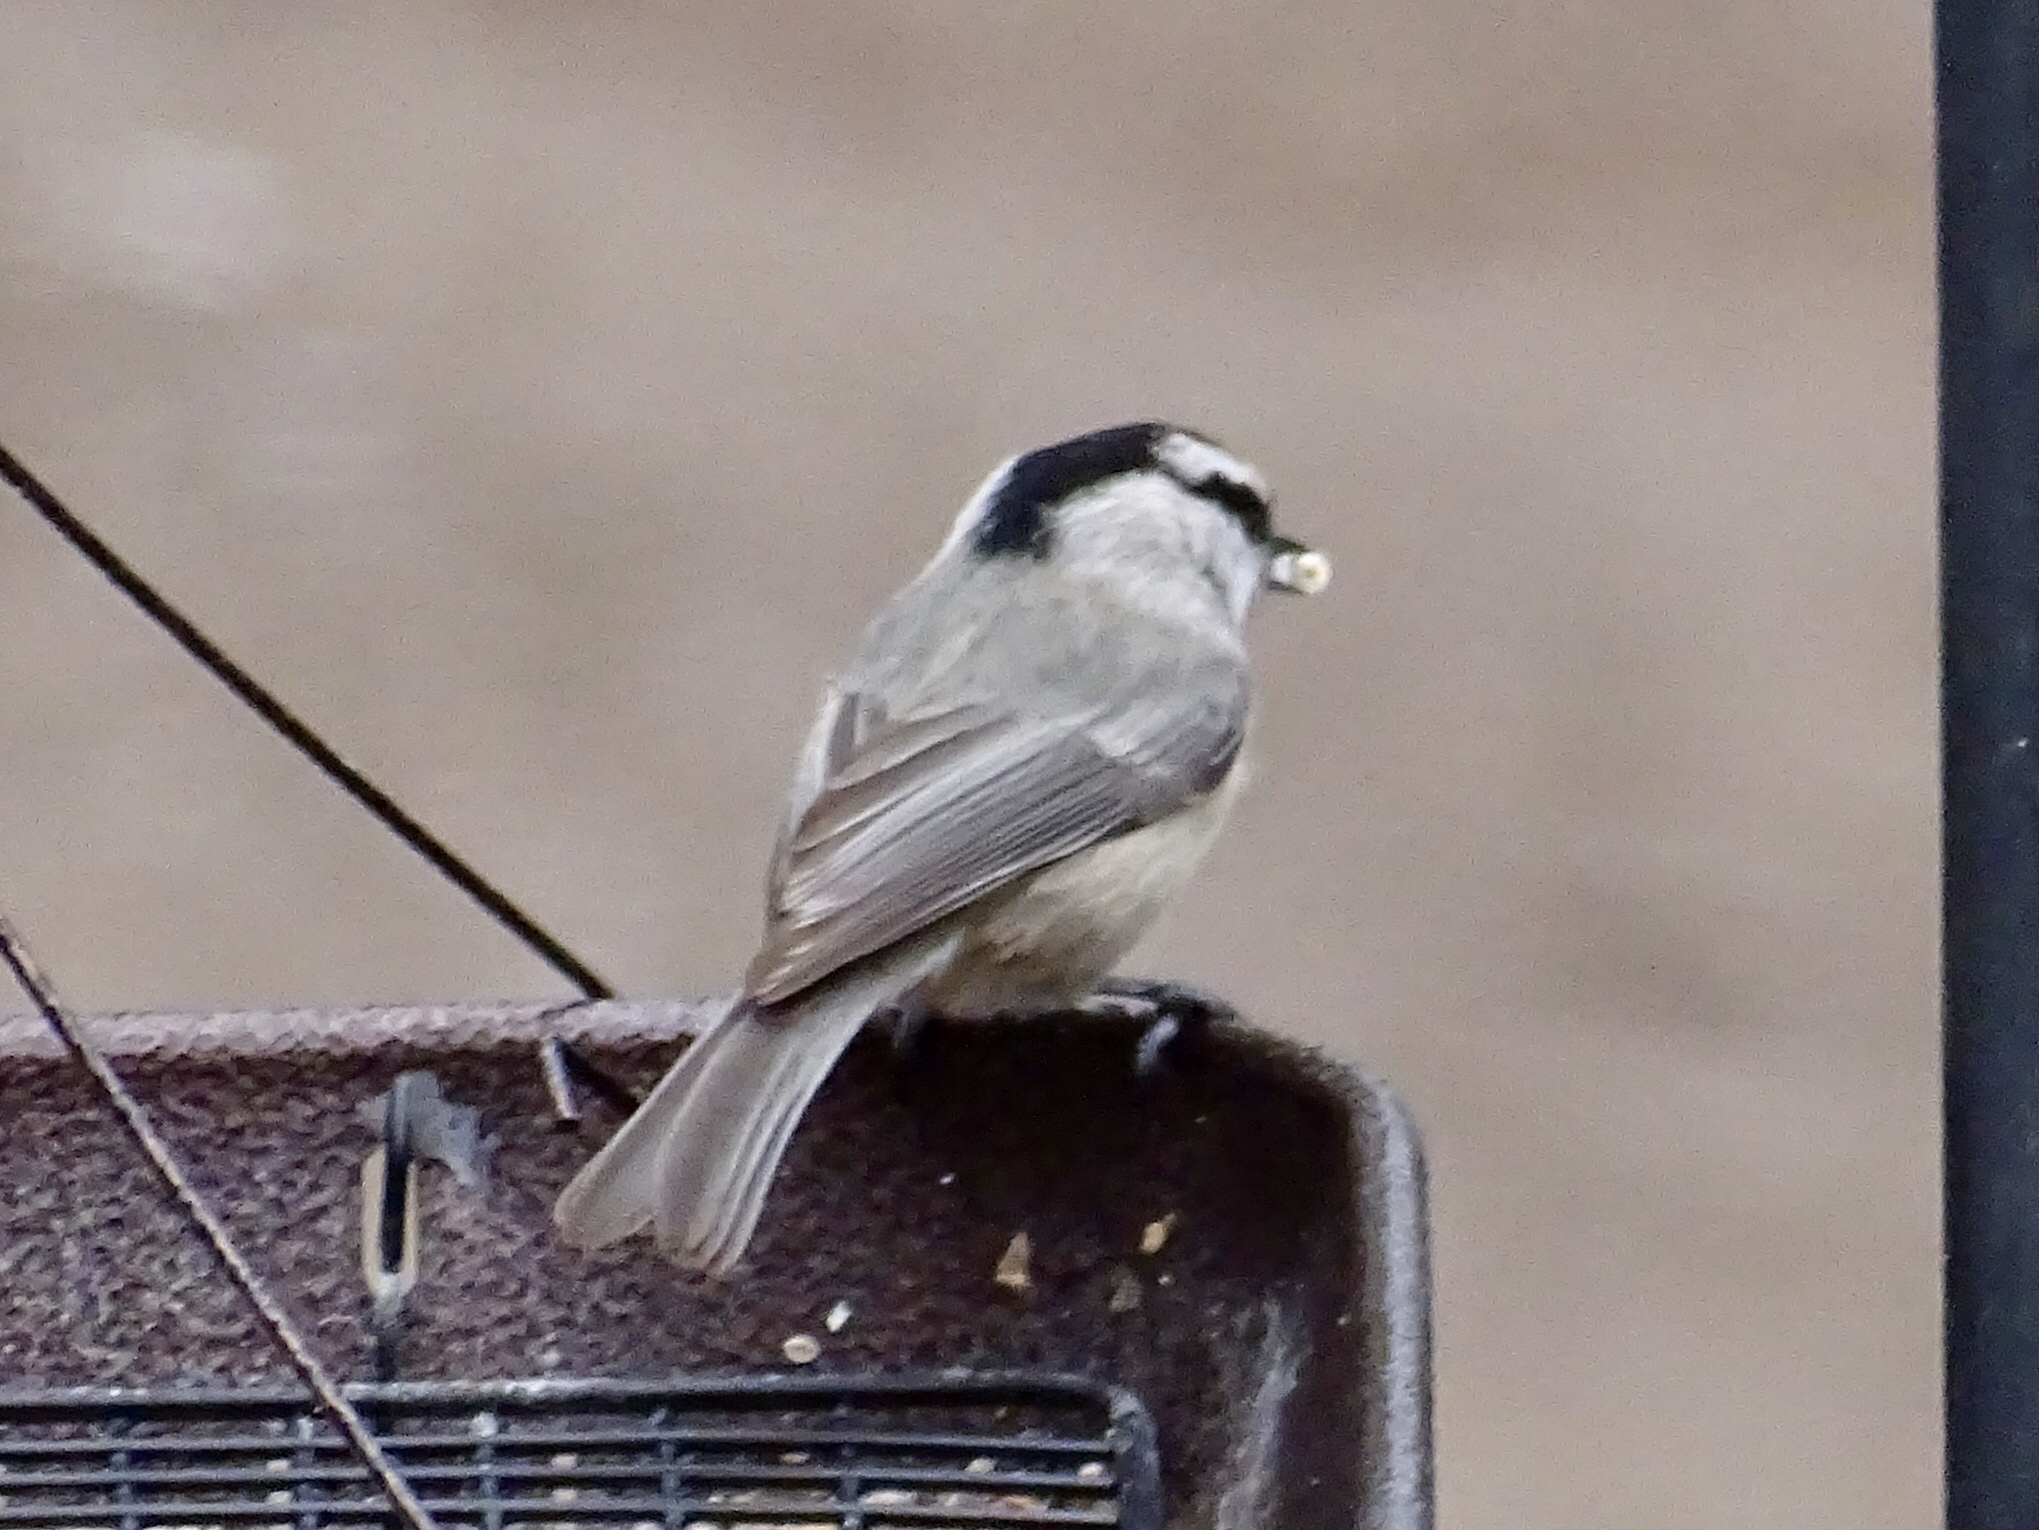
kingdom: Animalia
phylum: Chordata
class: Aves
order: Passeriformes
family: Paridae
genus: Poecile
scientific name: Poecile gambeli
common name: Mountain chickadee
